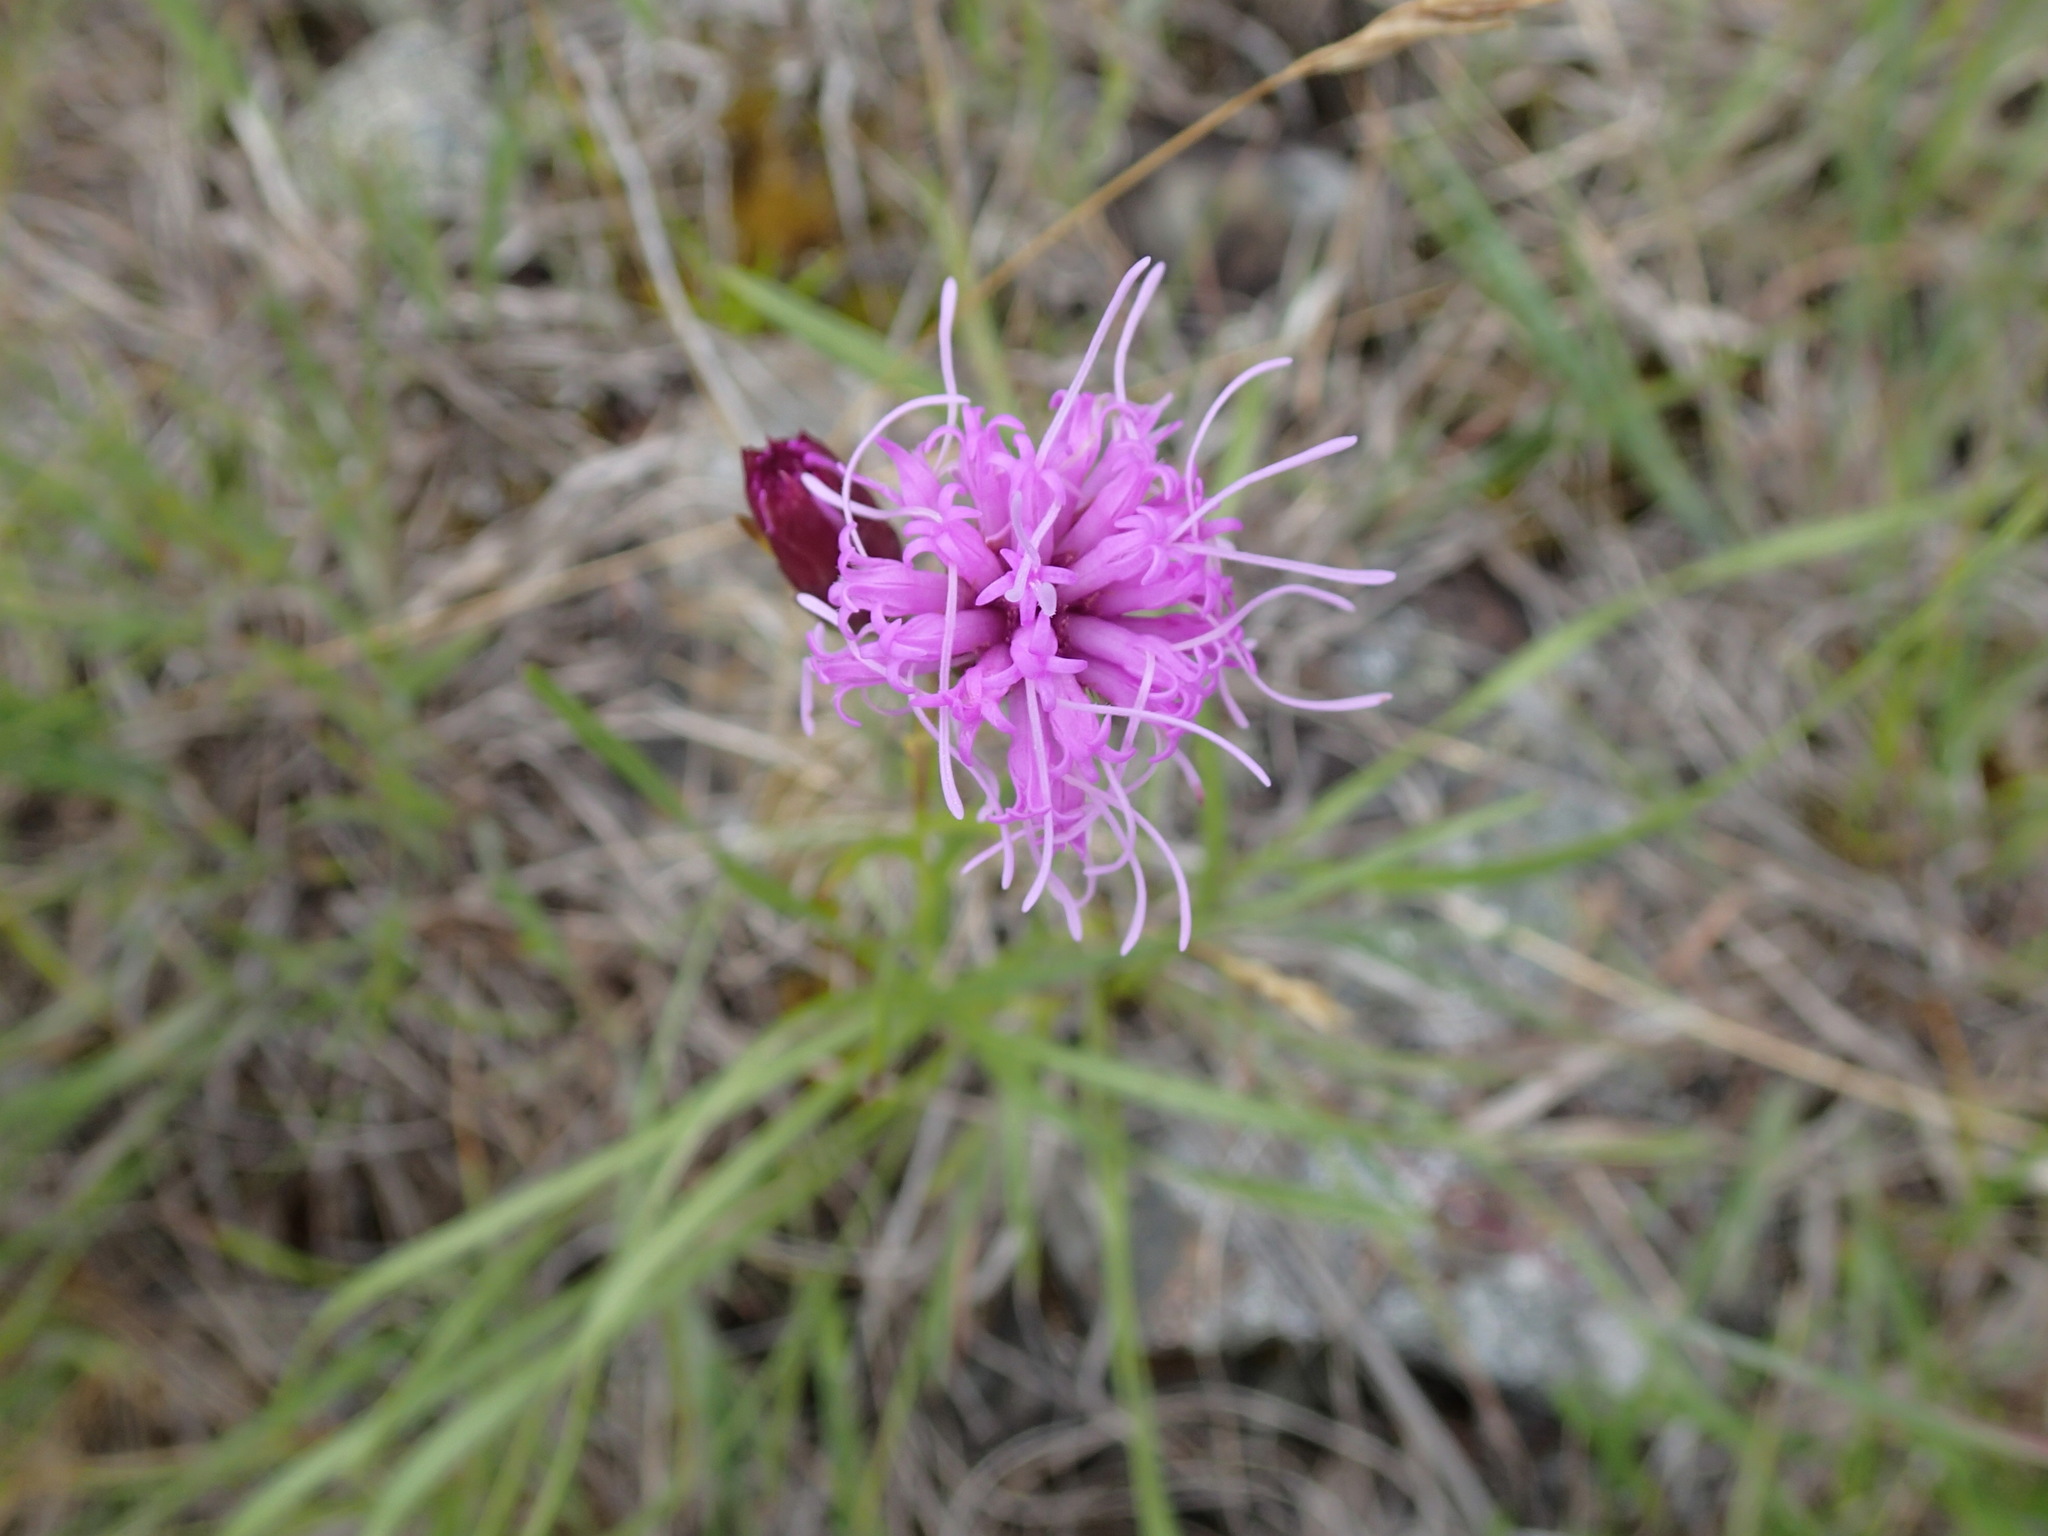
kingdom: Plantae
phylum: Tracheophyta
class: Magnoliopsida
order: Asterales
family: Asteraceae
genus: Liatris
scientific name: Liatris cylindracea
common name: Few-head blazingstar
